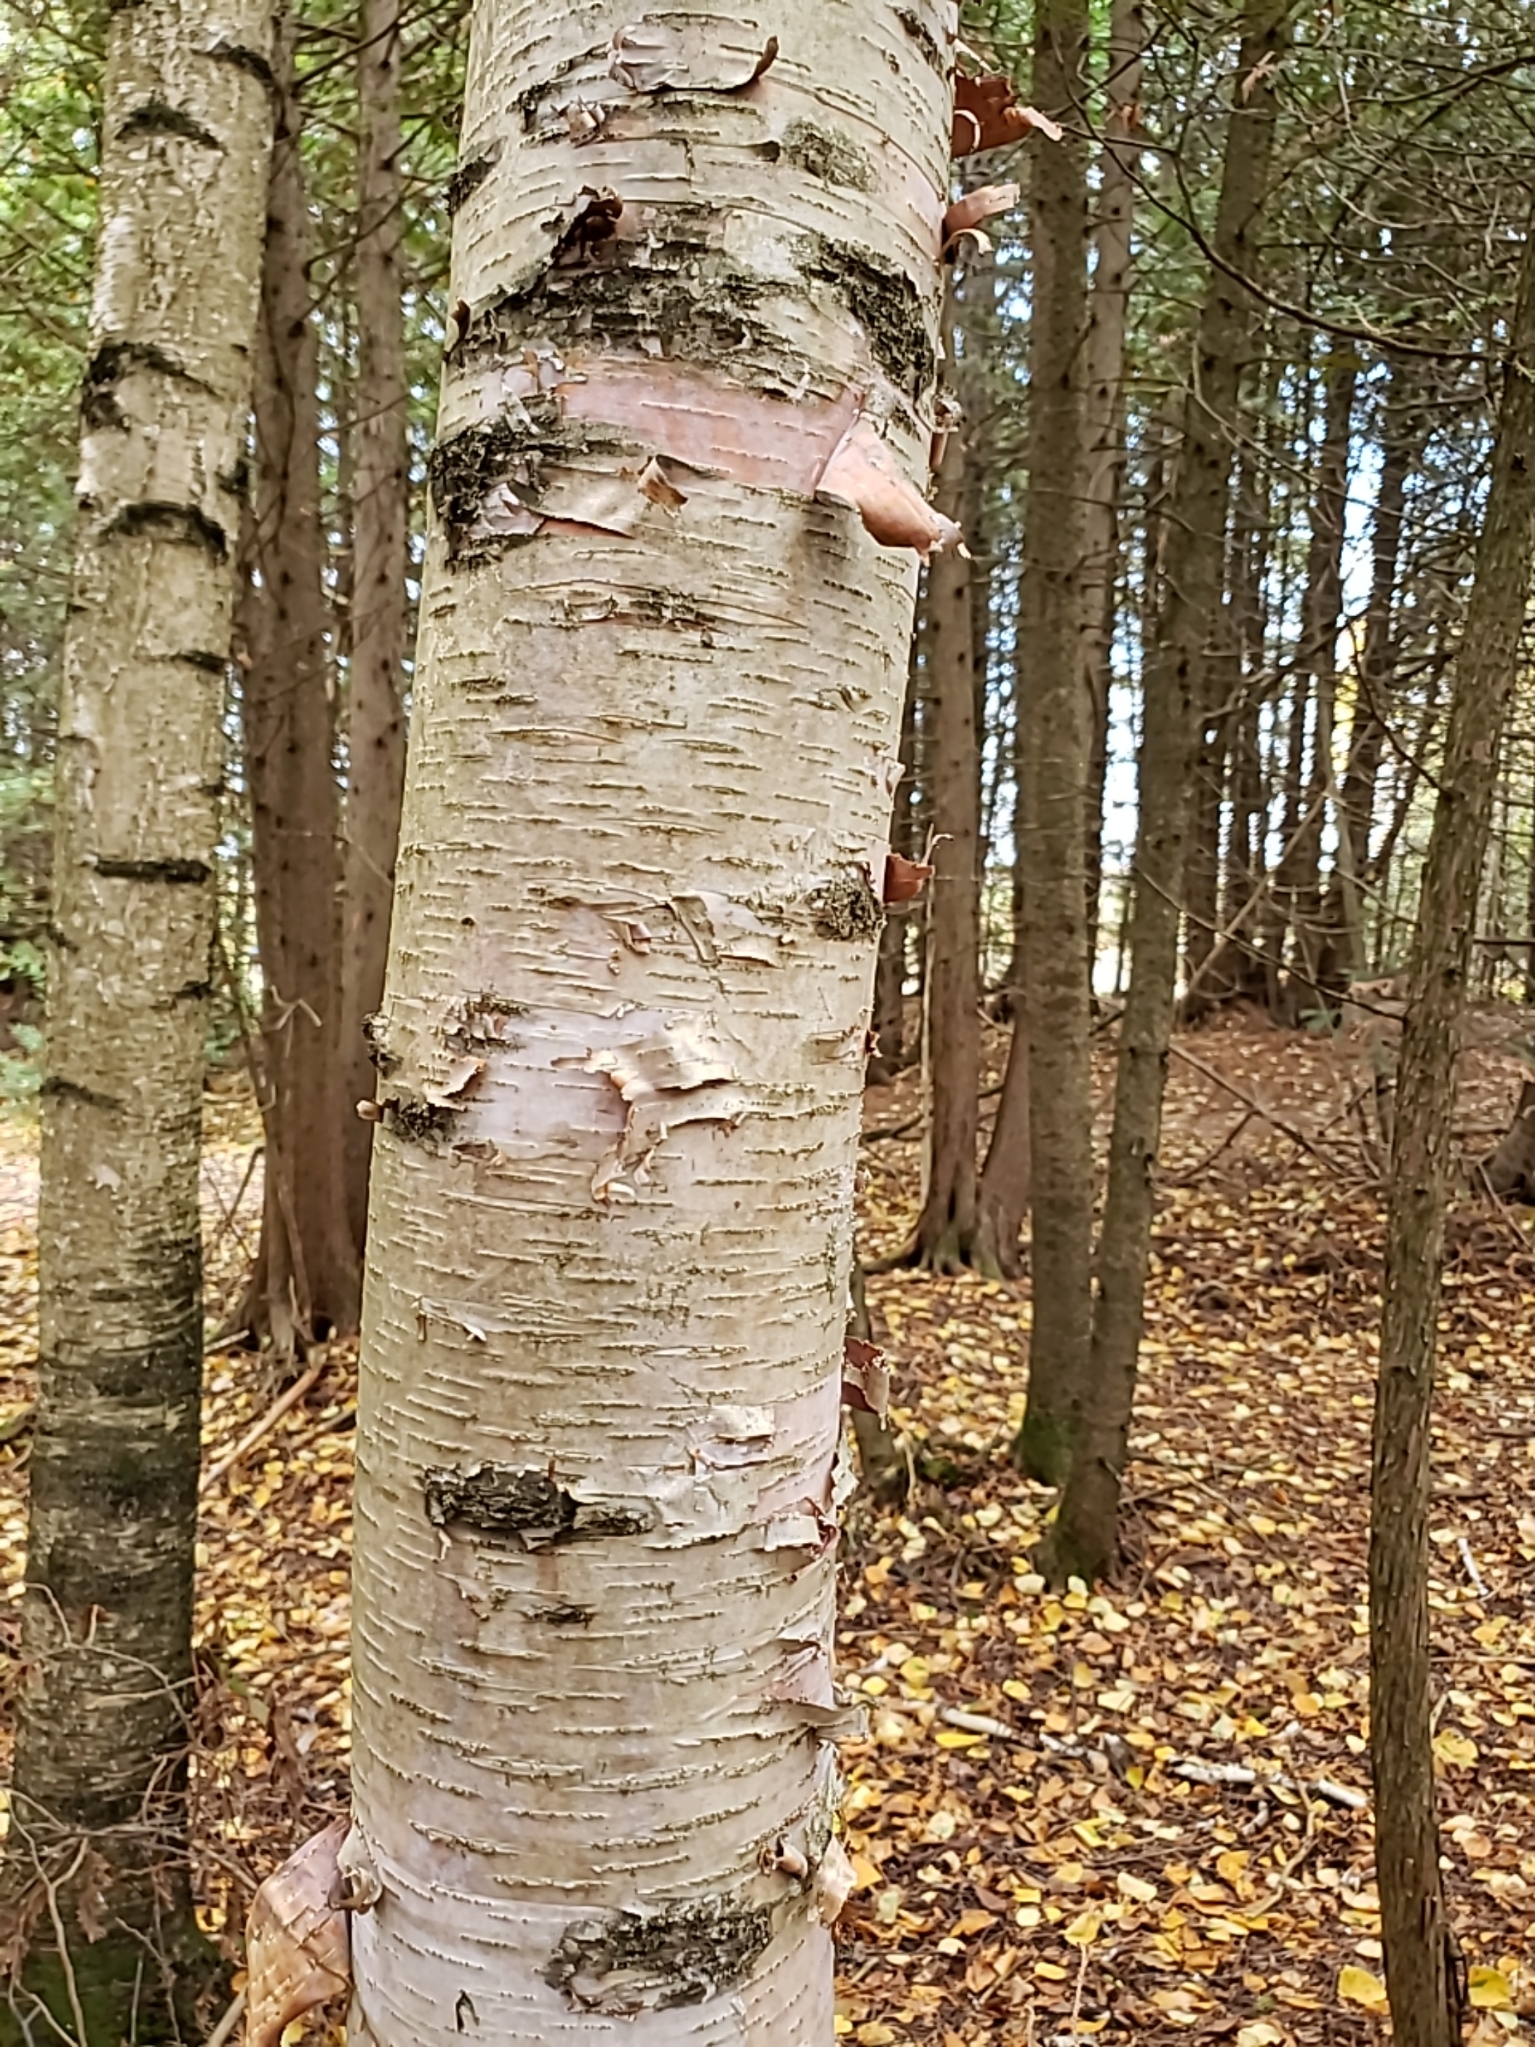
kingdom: Plantae
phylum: Tracheophyta
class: Magnoliopsida
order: Fagales
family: Betulaceae
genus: Betula
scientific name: Betula papyrifera
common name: Paper birch
